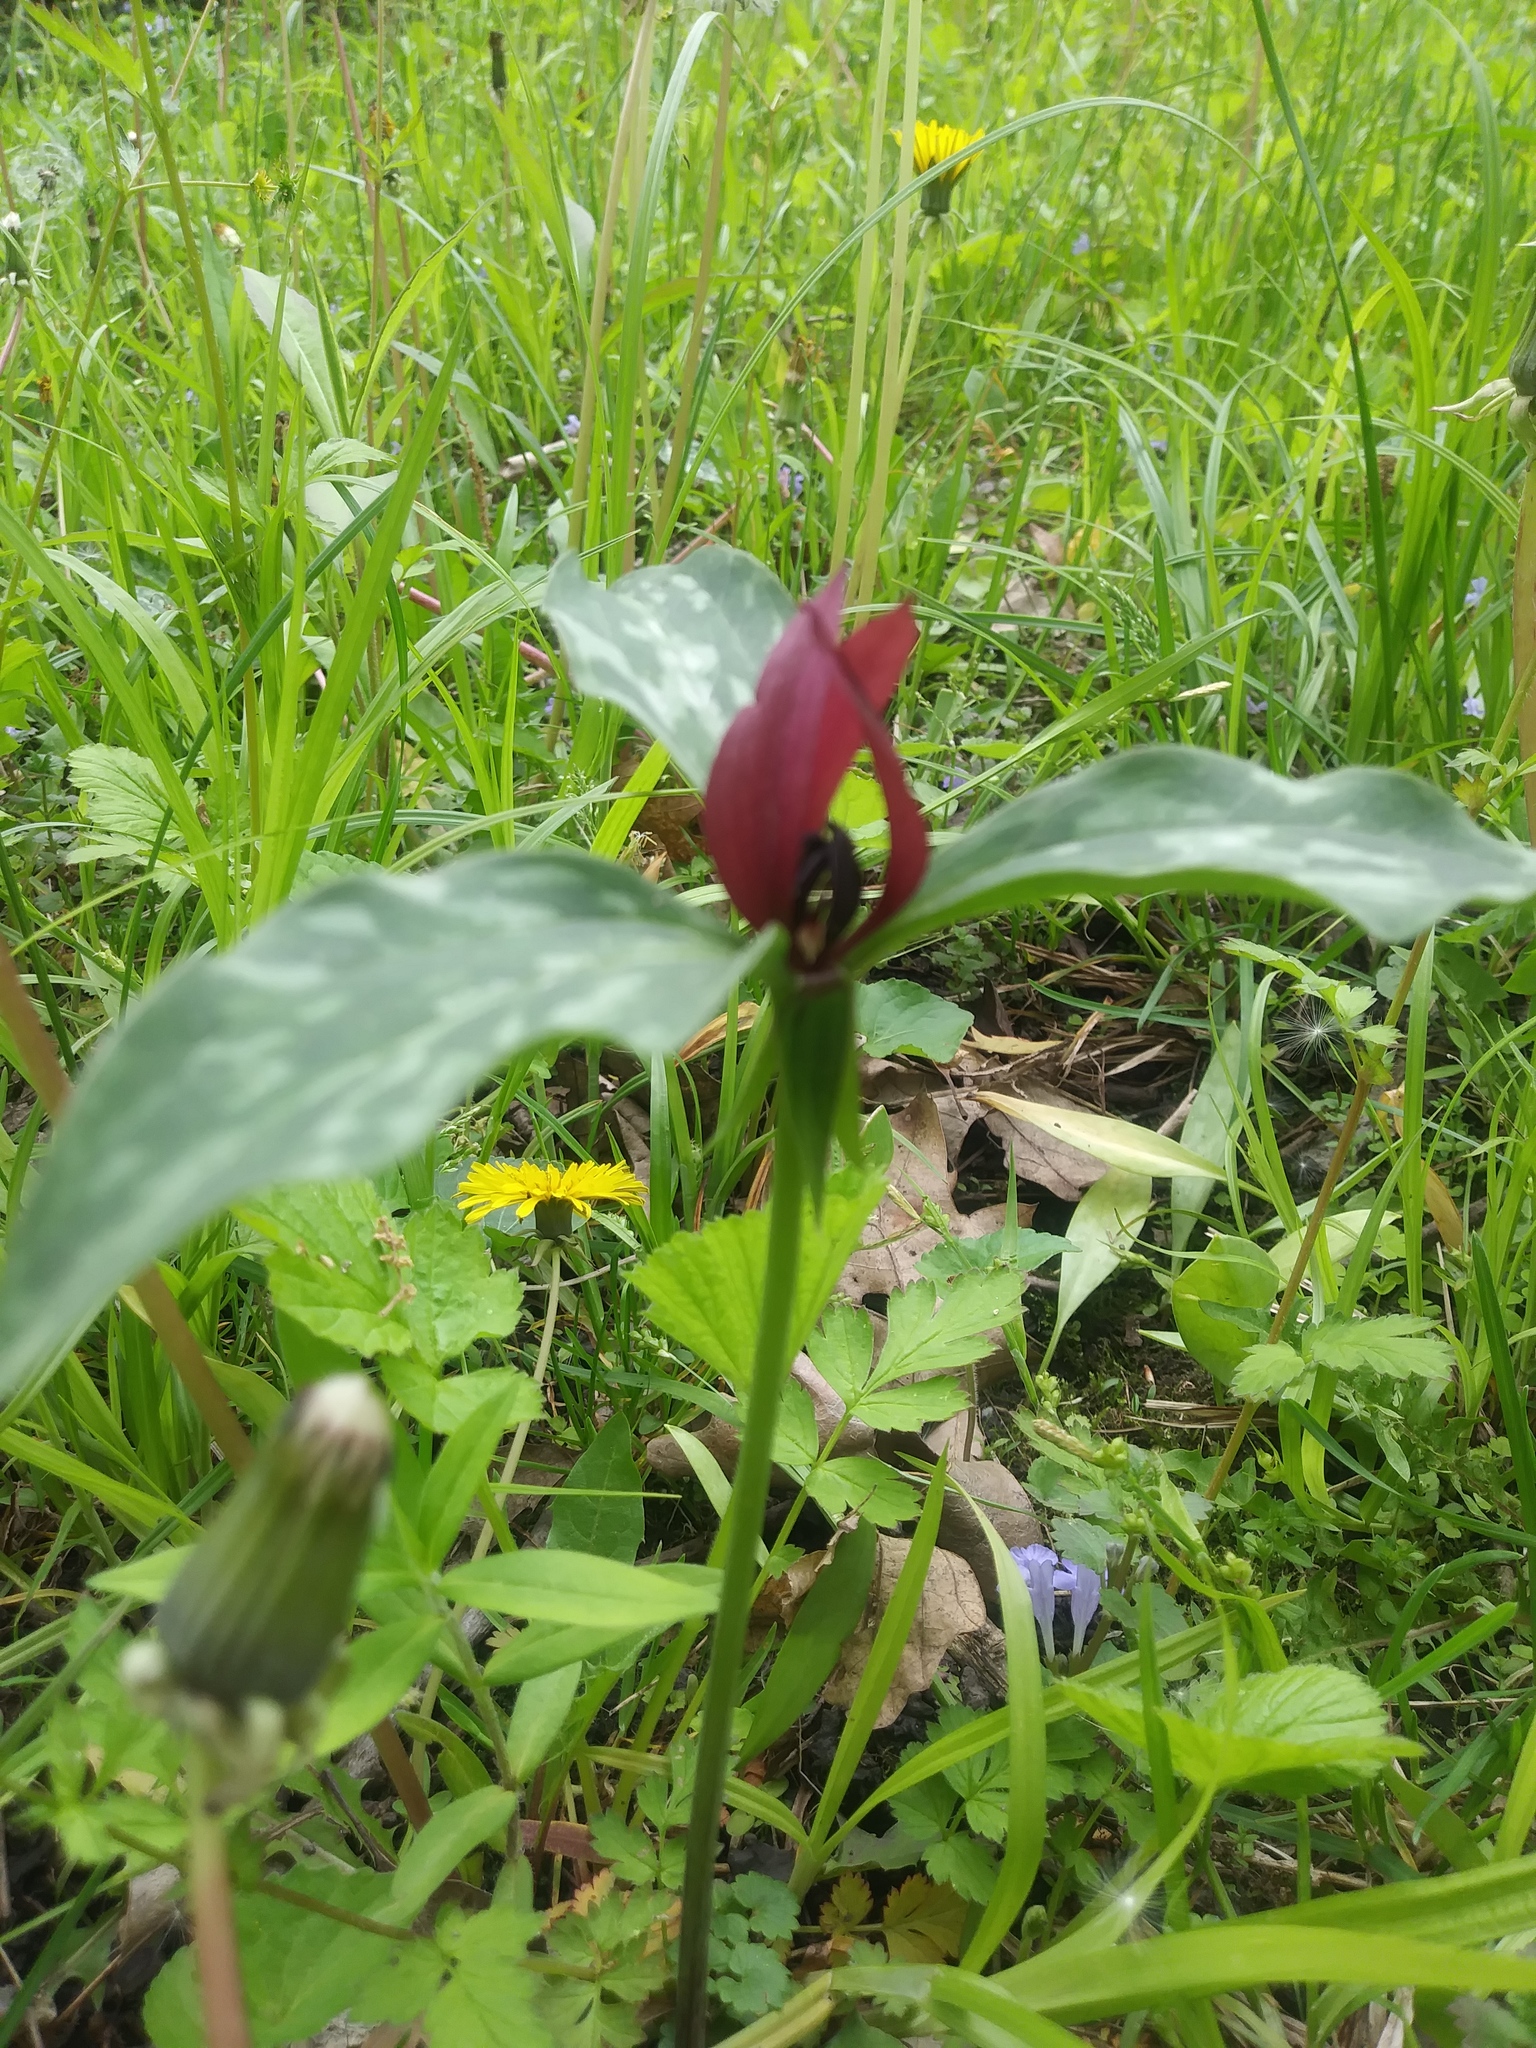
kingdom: Plantae
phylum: Tracheophyta
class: Liliopsida
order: Liliales
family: Melanthiaceae
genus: Trillium
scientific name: Trillium recurvatum
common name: Bloody butcher
